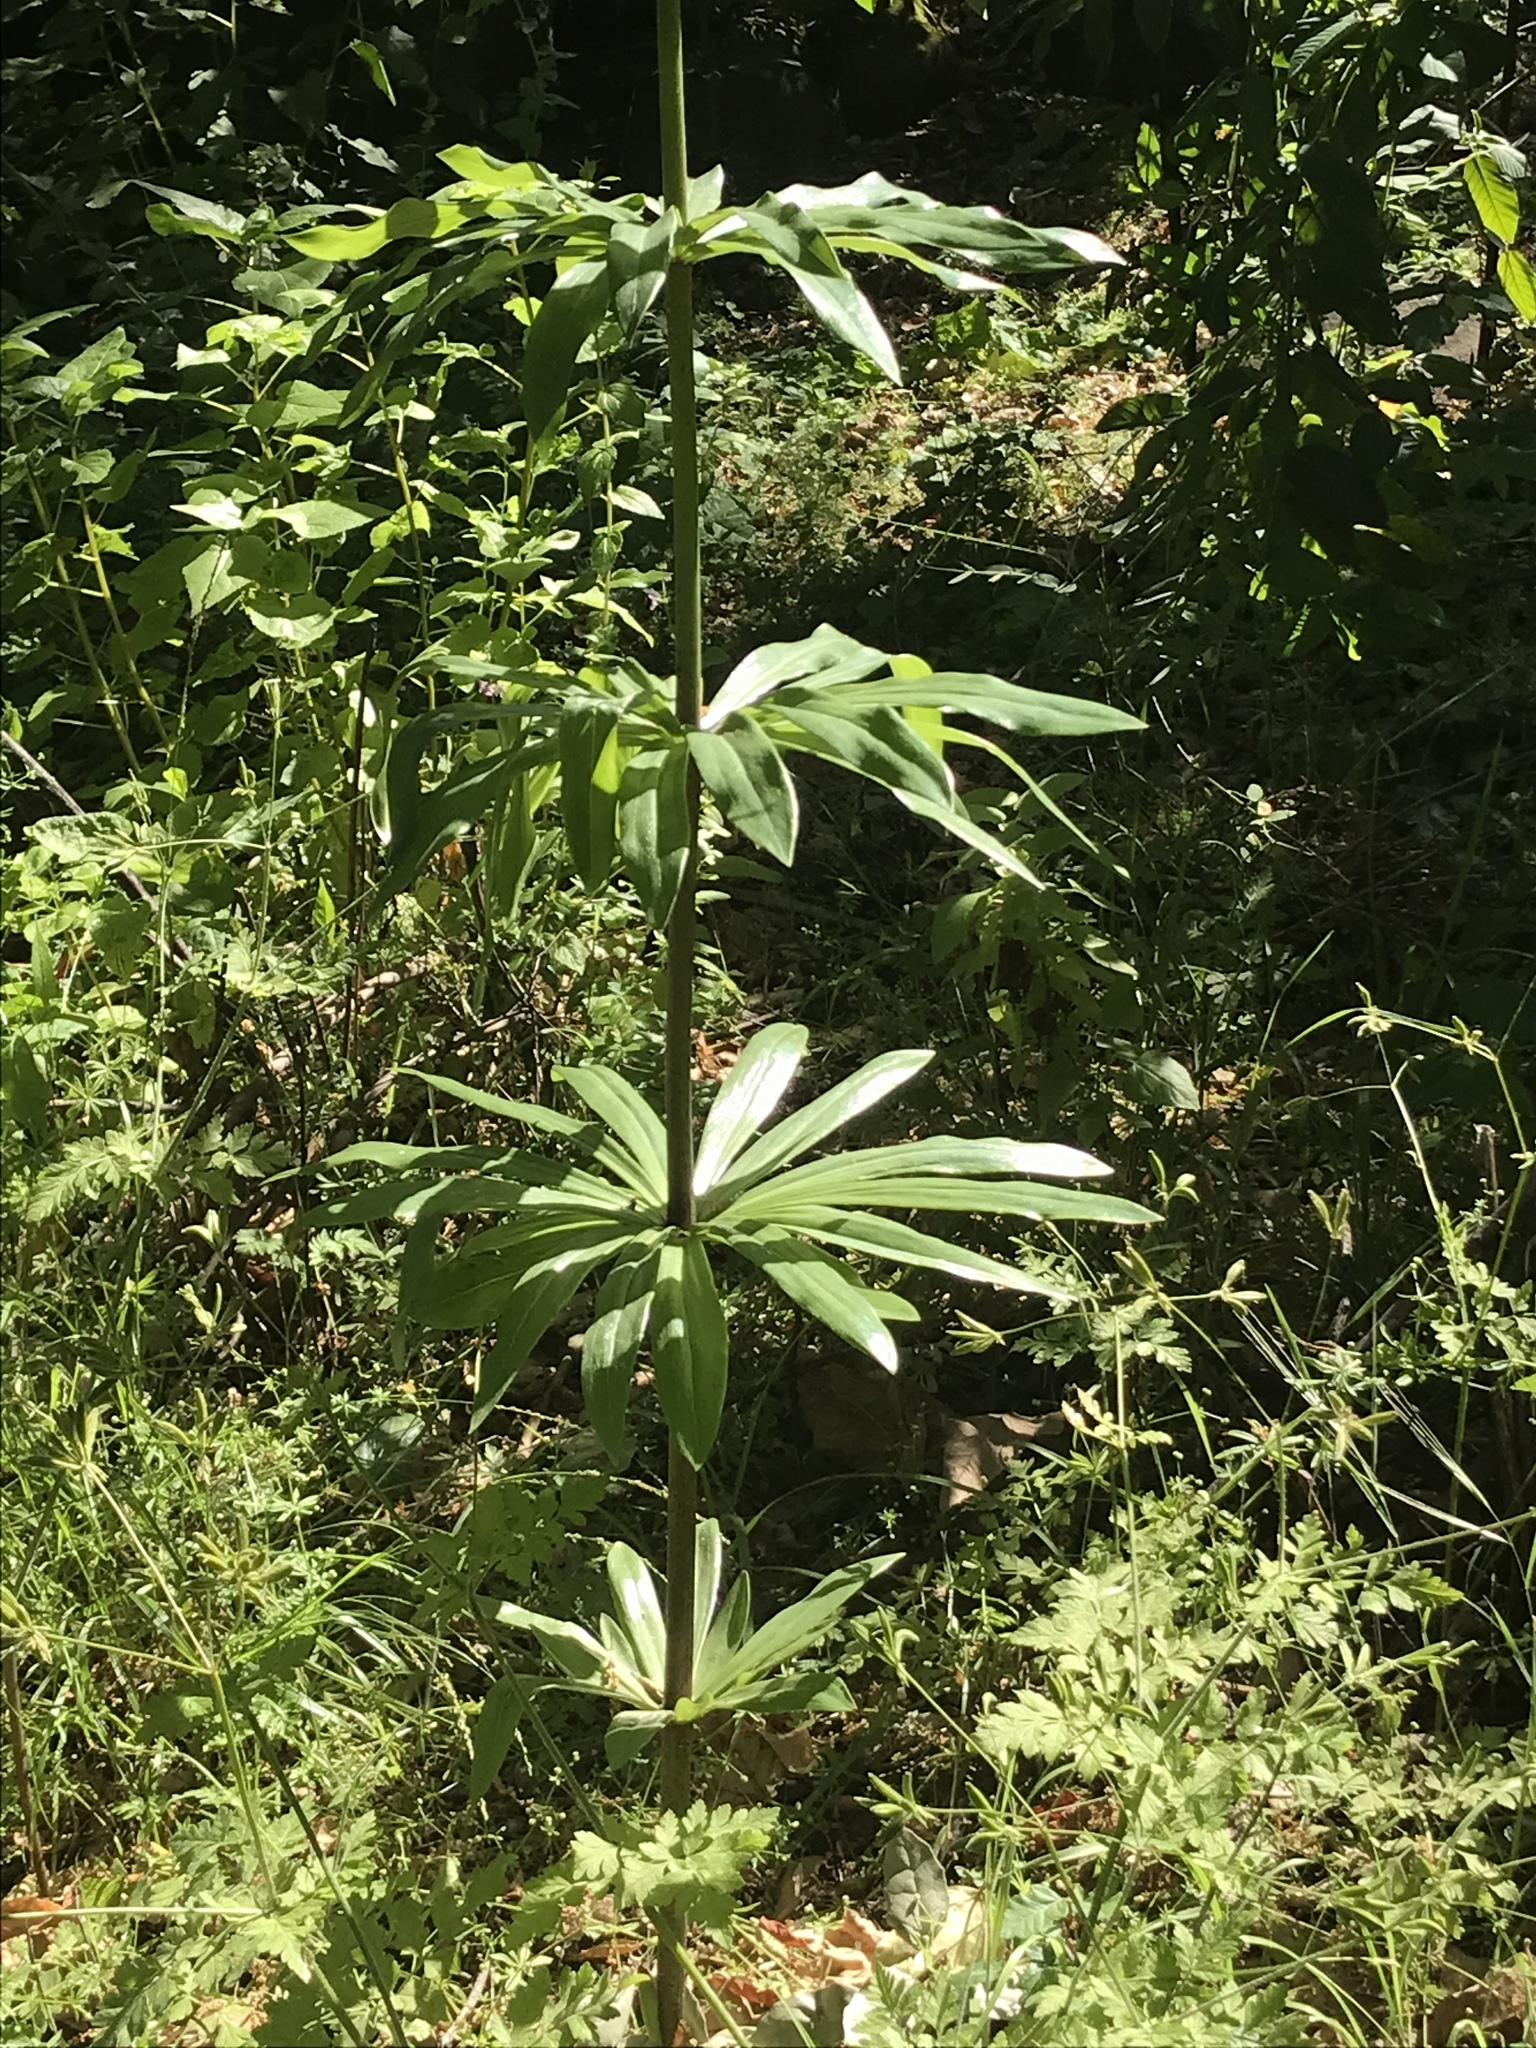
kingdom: Plantae
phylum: Tracheophyta
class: Liliopsida
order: Liliales
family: Liliaceae
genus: Lilium
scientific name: Lilium humboldtii
